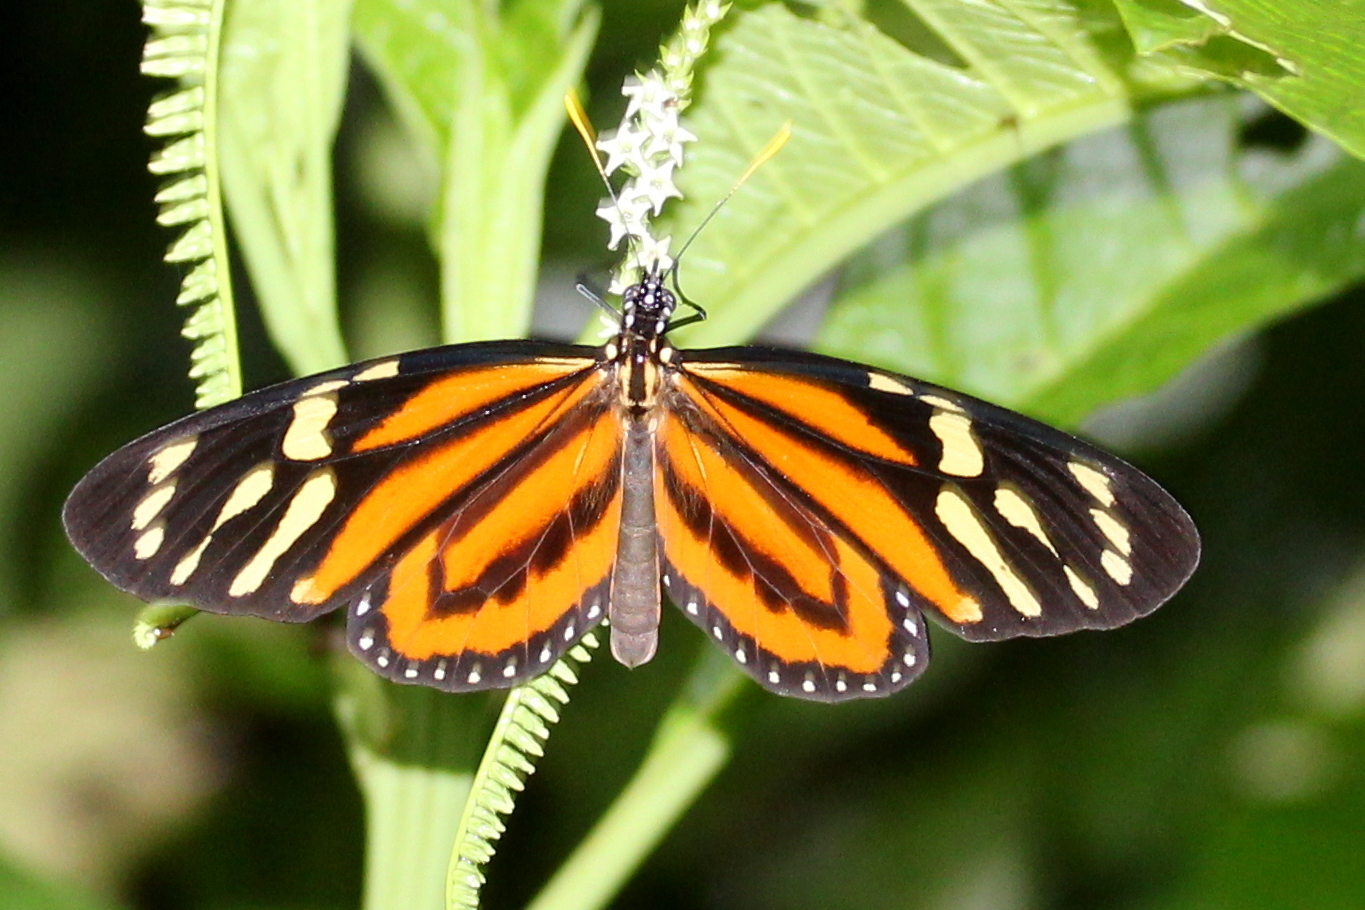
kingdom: Animalia
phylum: Arthropoda
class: Insecta
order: Lepidoptera
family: Nymphalidae
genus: Lycorea
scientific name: Lycorea cleobaea
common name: Tiger mimic-queen
